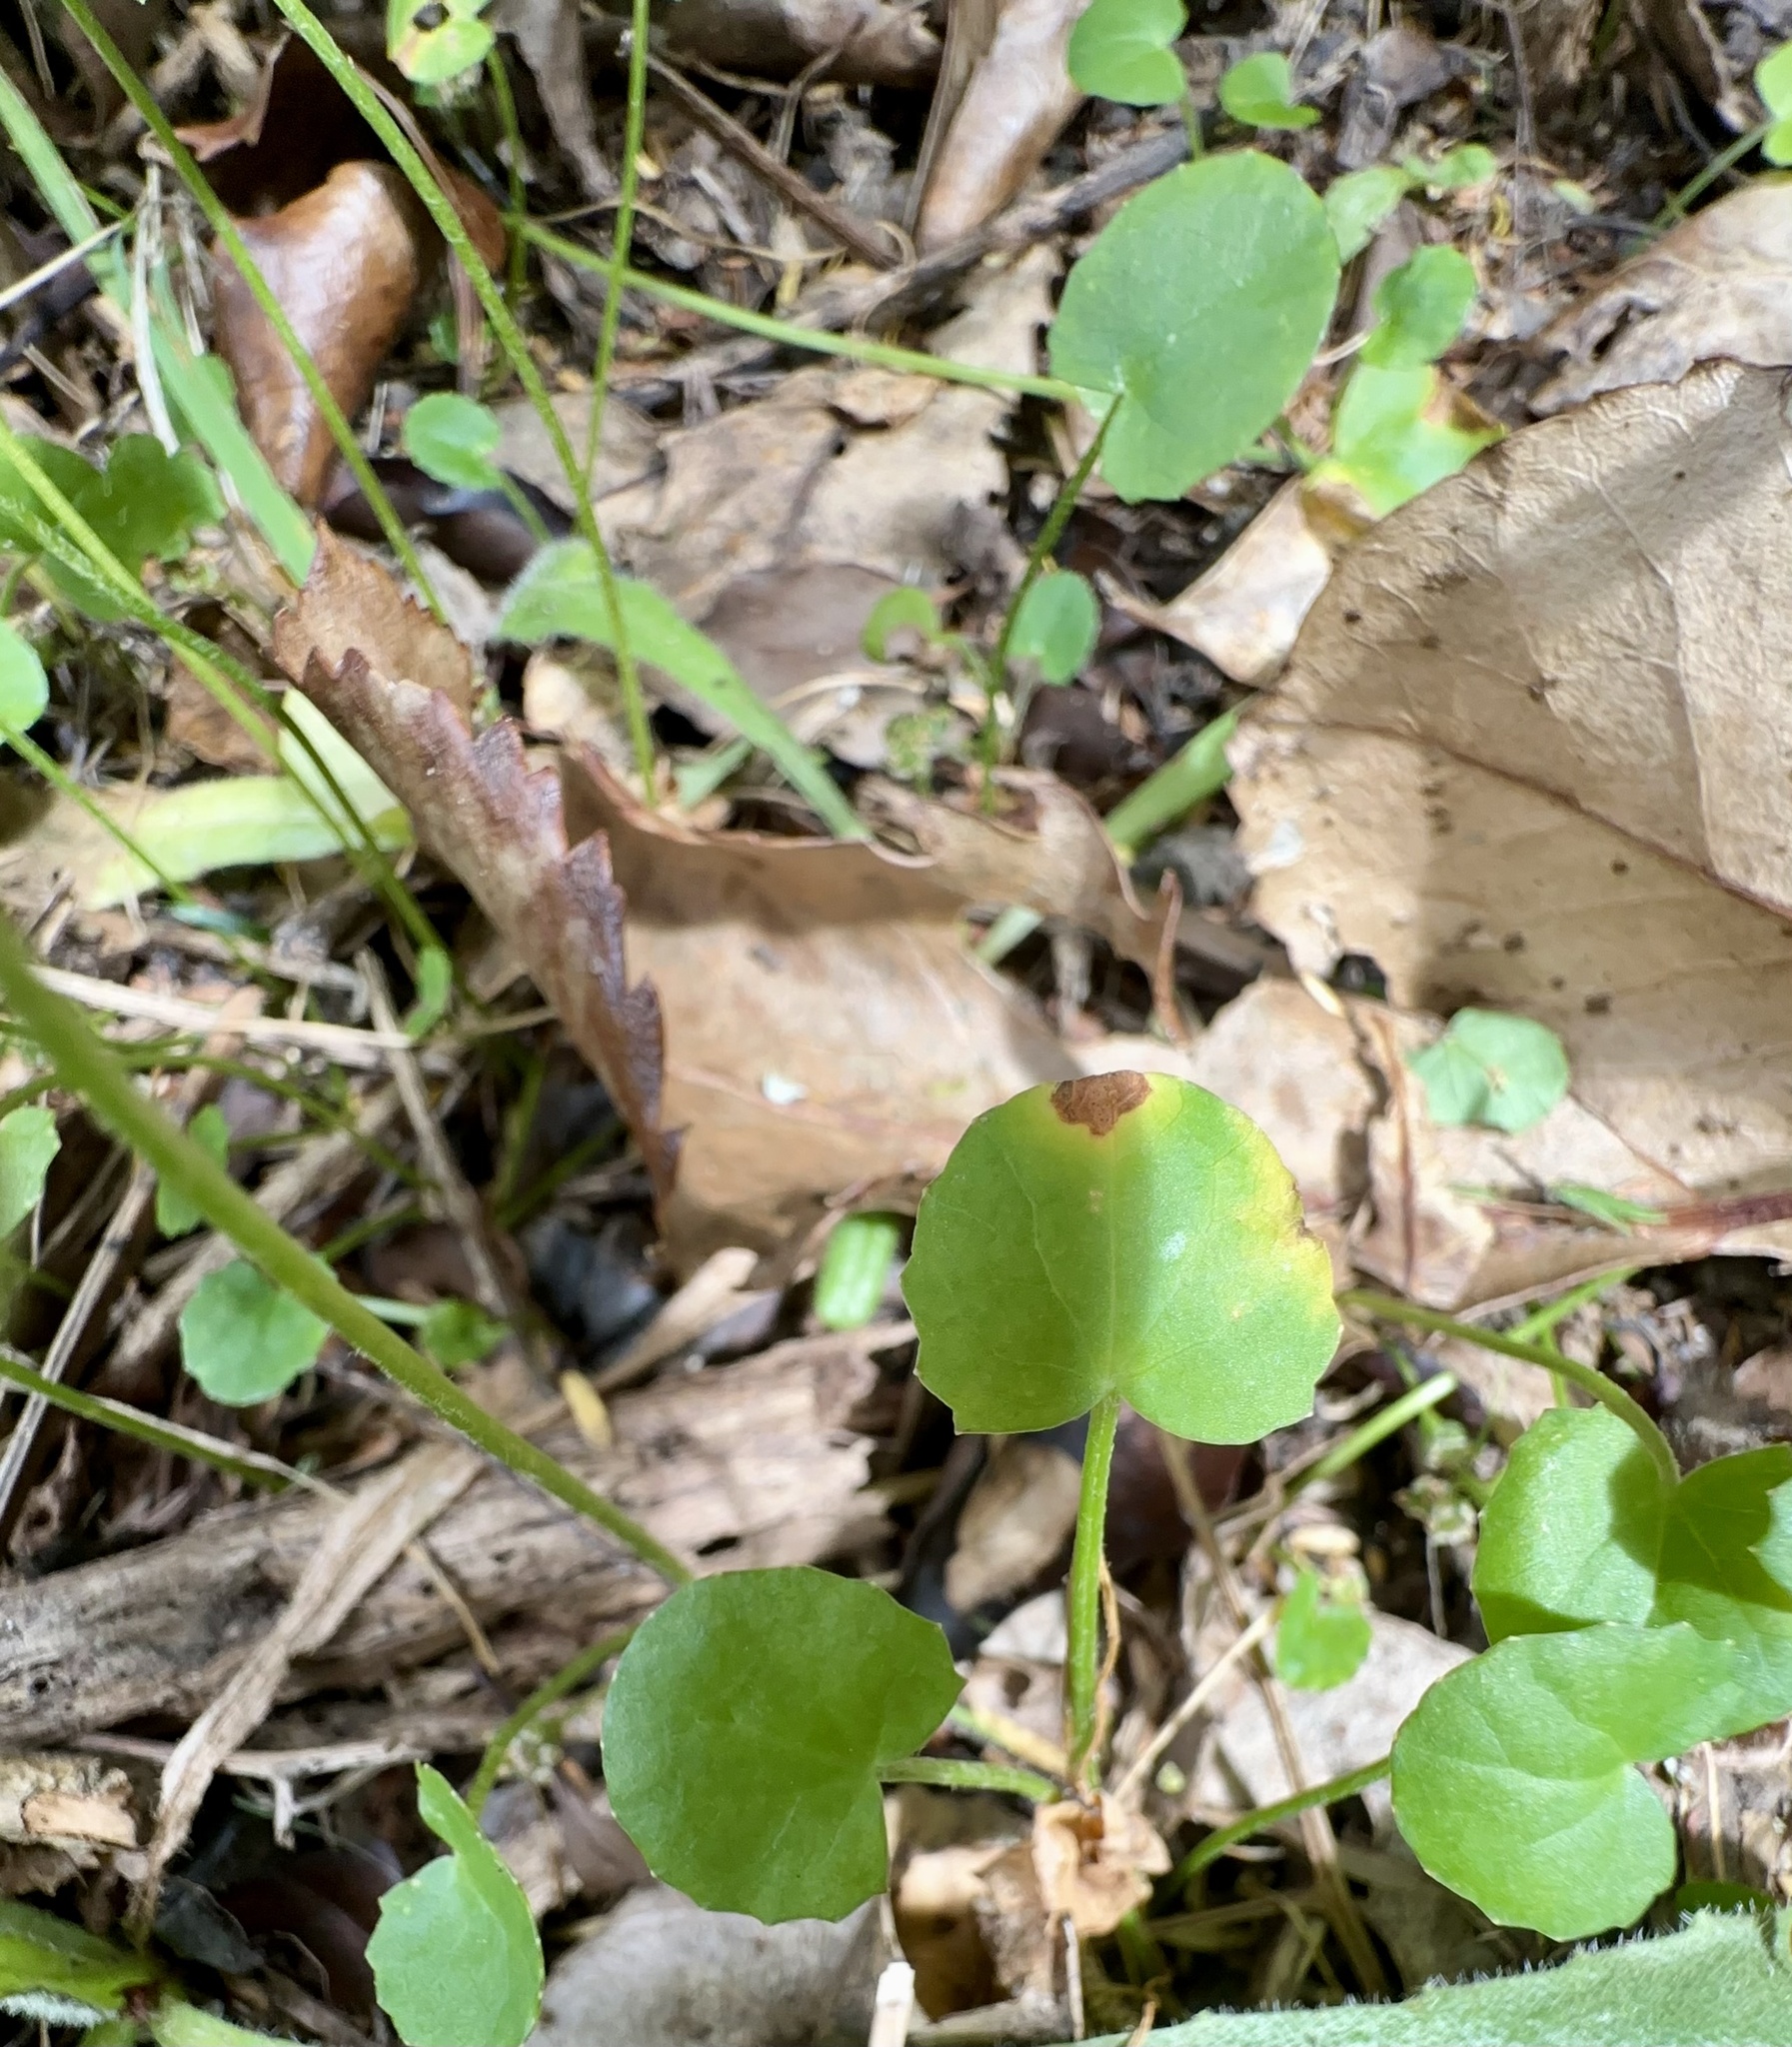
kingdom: Plantae
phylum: Tracheophyta
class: Magnoliopsida
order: Apiales
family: Apiaceae
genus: Centella
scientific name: Centella uniflora
